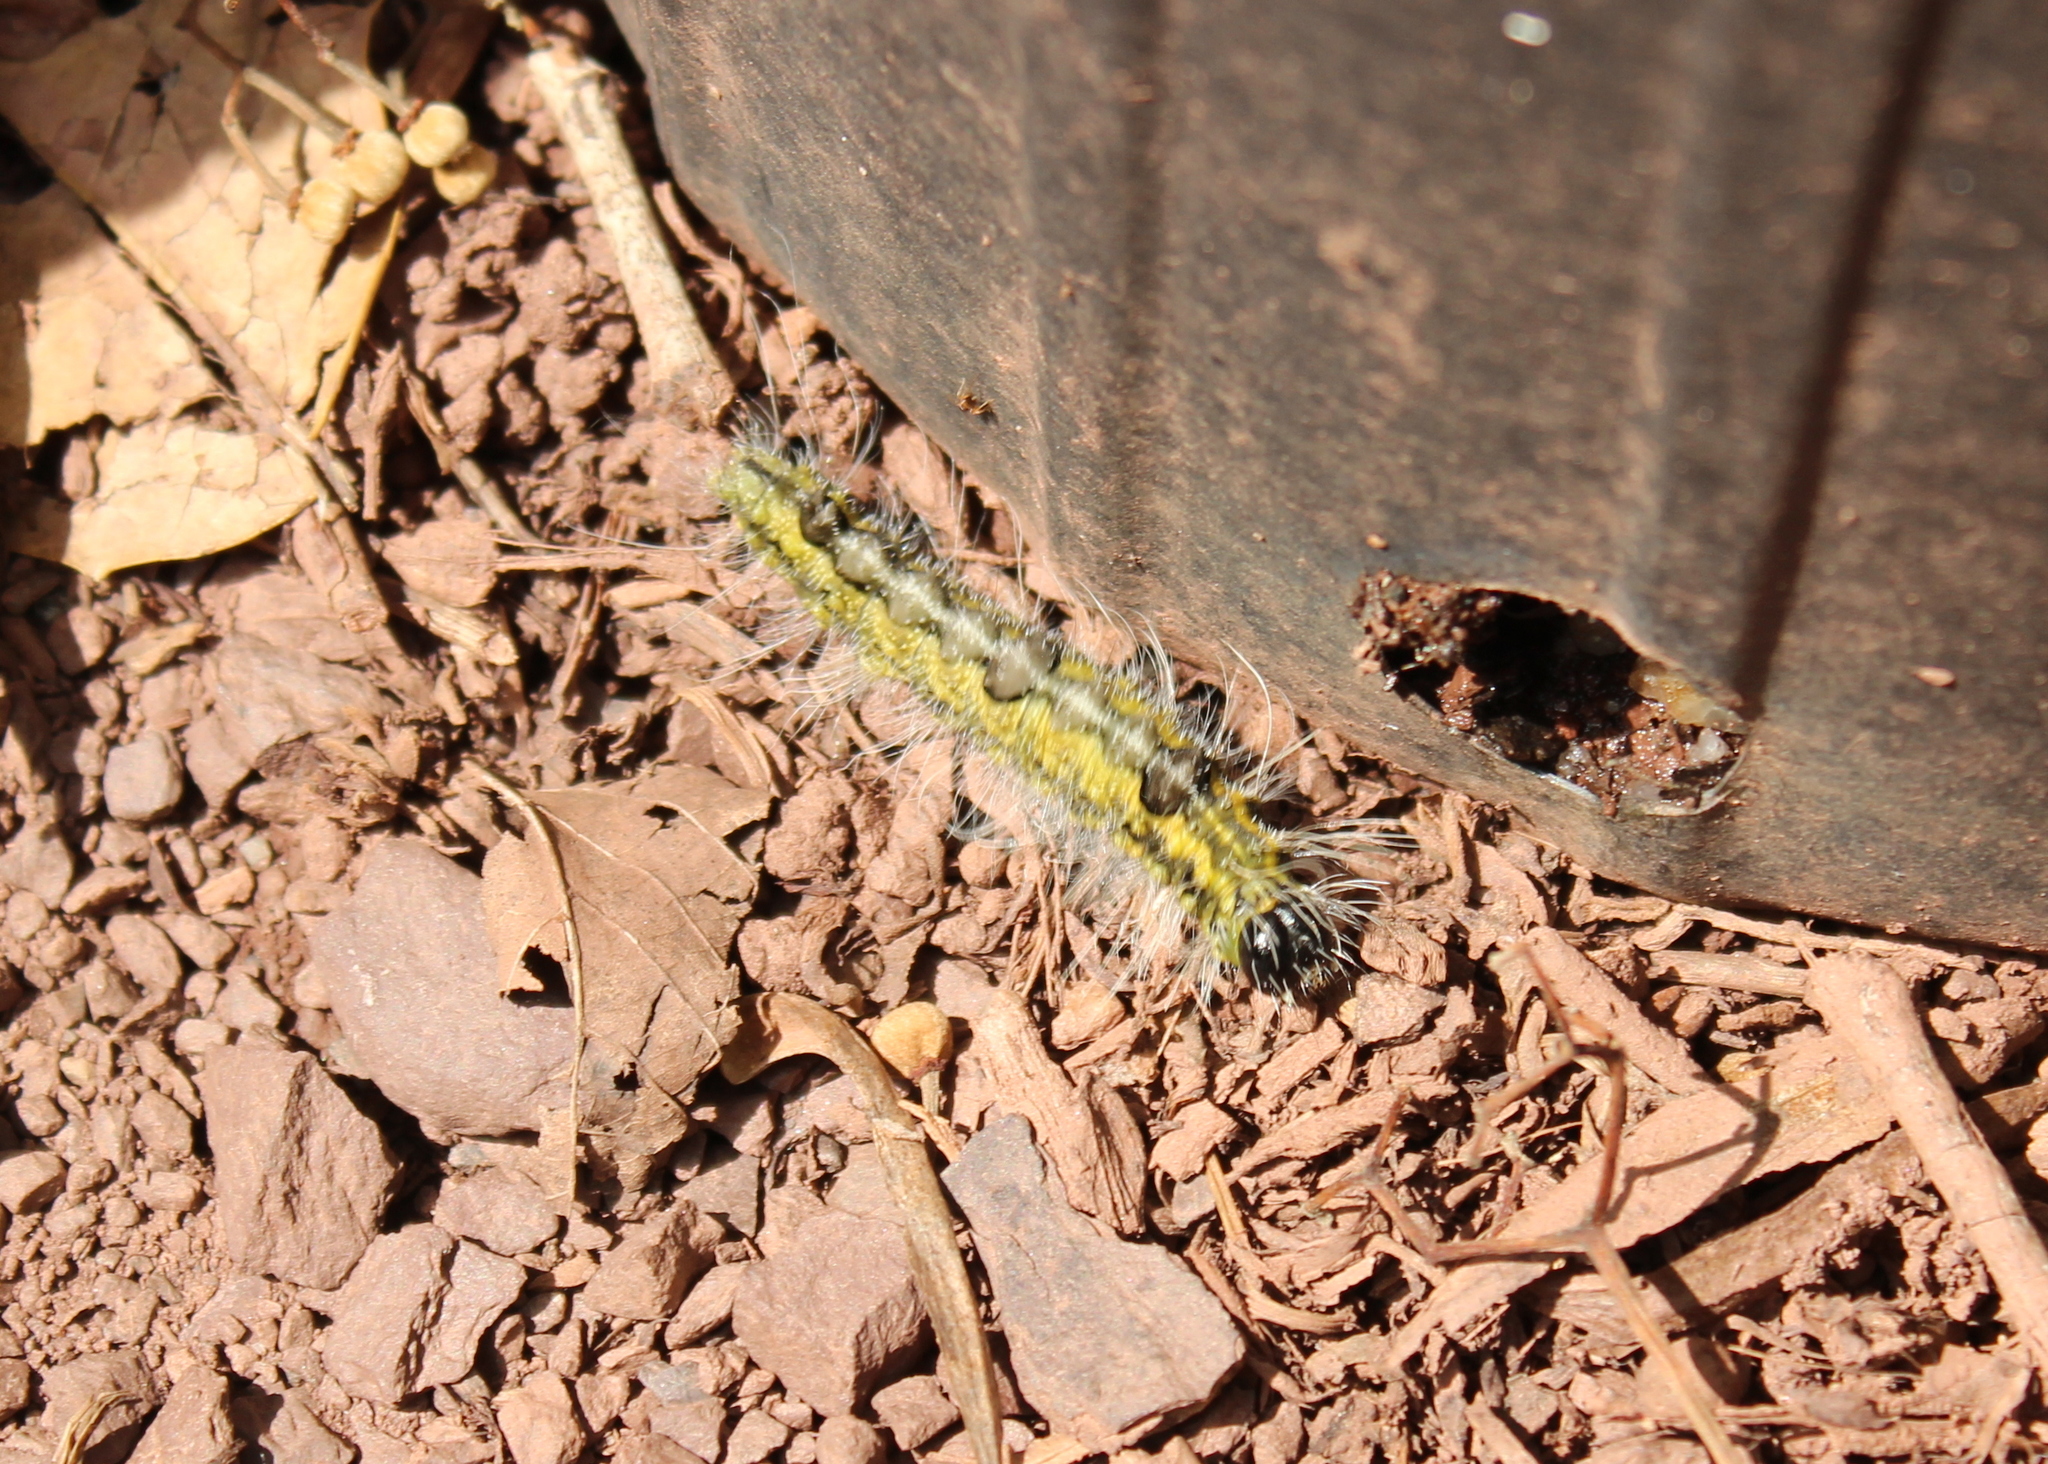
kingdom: Animalia
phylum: Arthropoda
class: Insecta
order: Lepidoptera
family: Noctuidae
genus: Acronicta
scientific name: Acronicta morula
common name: Ochre dagger
